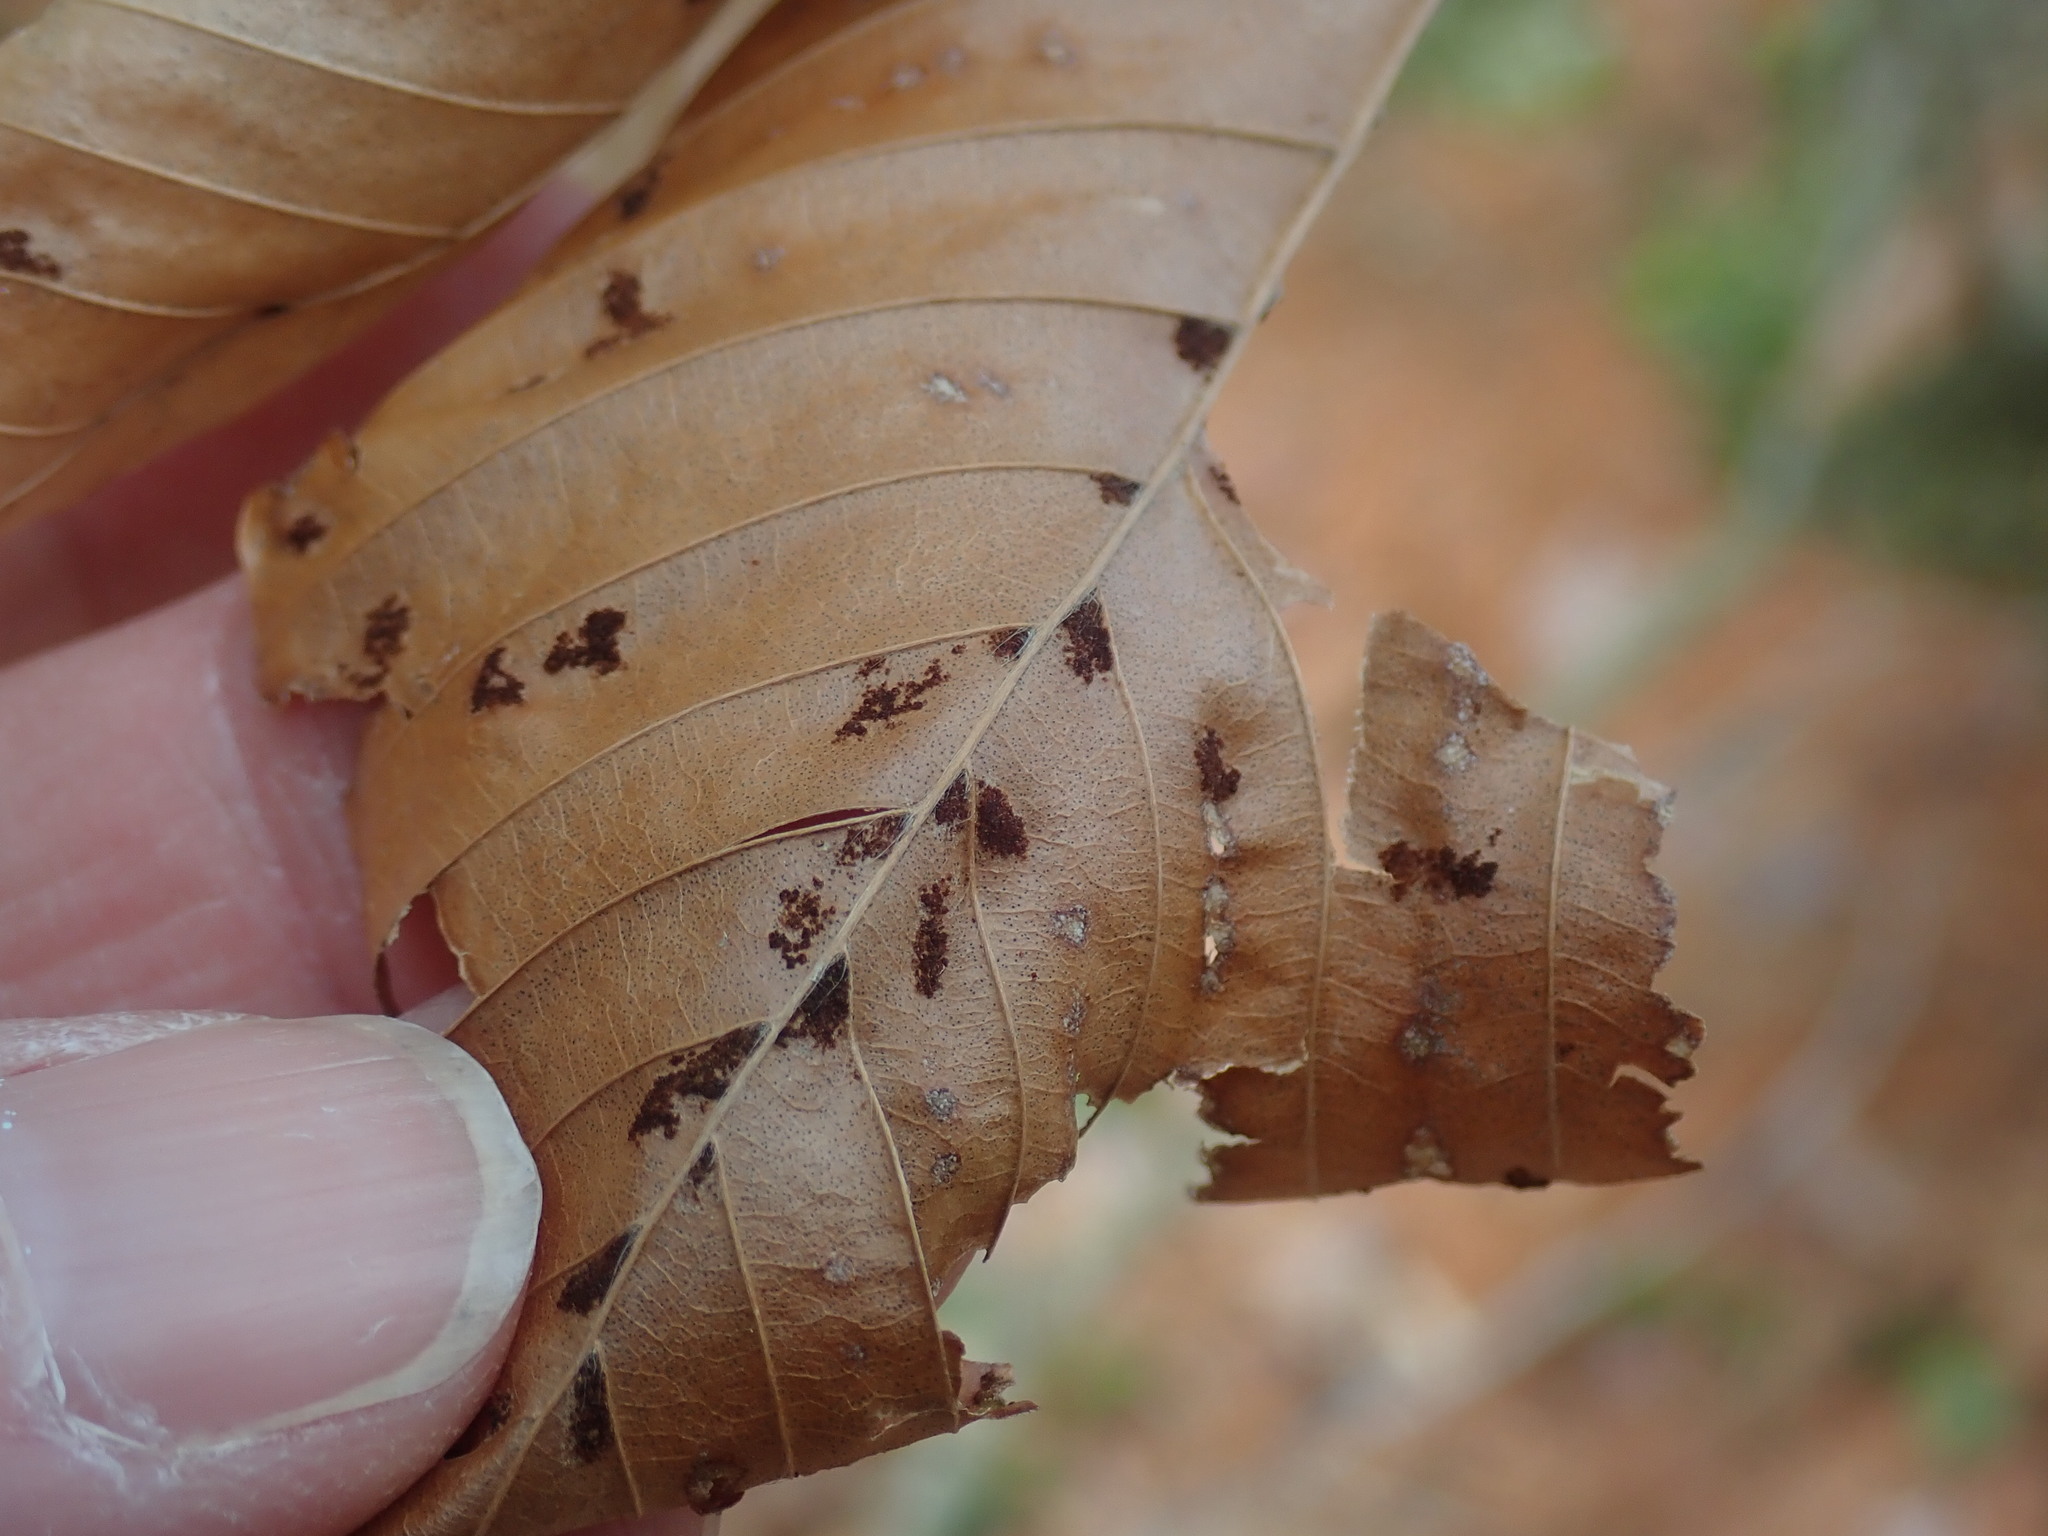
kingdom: Animalia
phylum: Arthropoda
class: Arachnida
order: Trombidiformes
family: Eriophyidae
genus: Acalitus
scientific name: Acalitus
